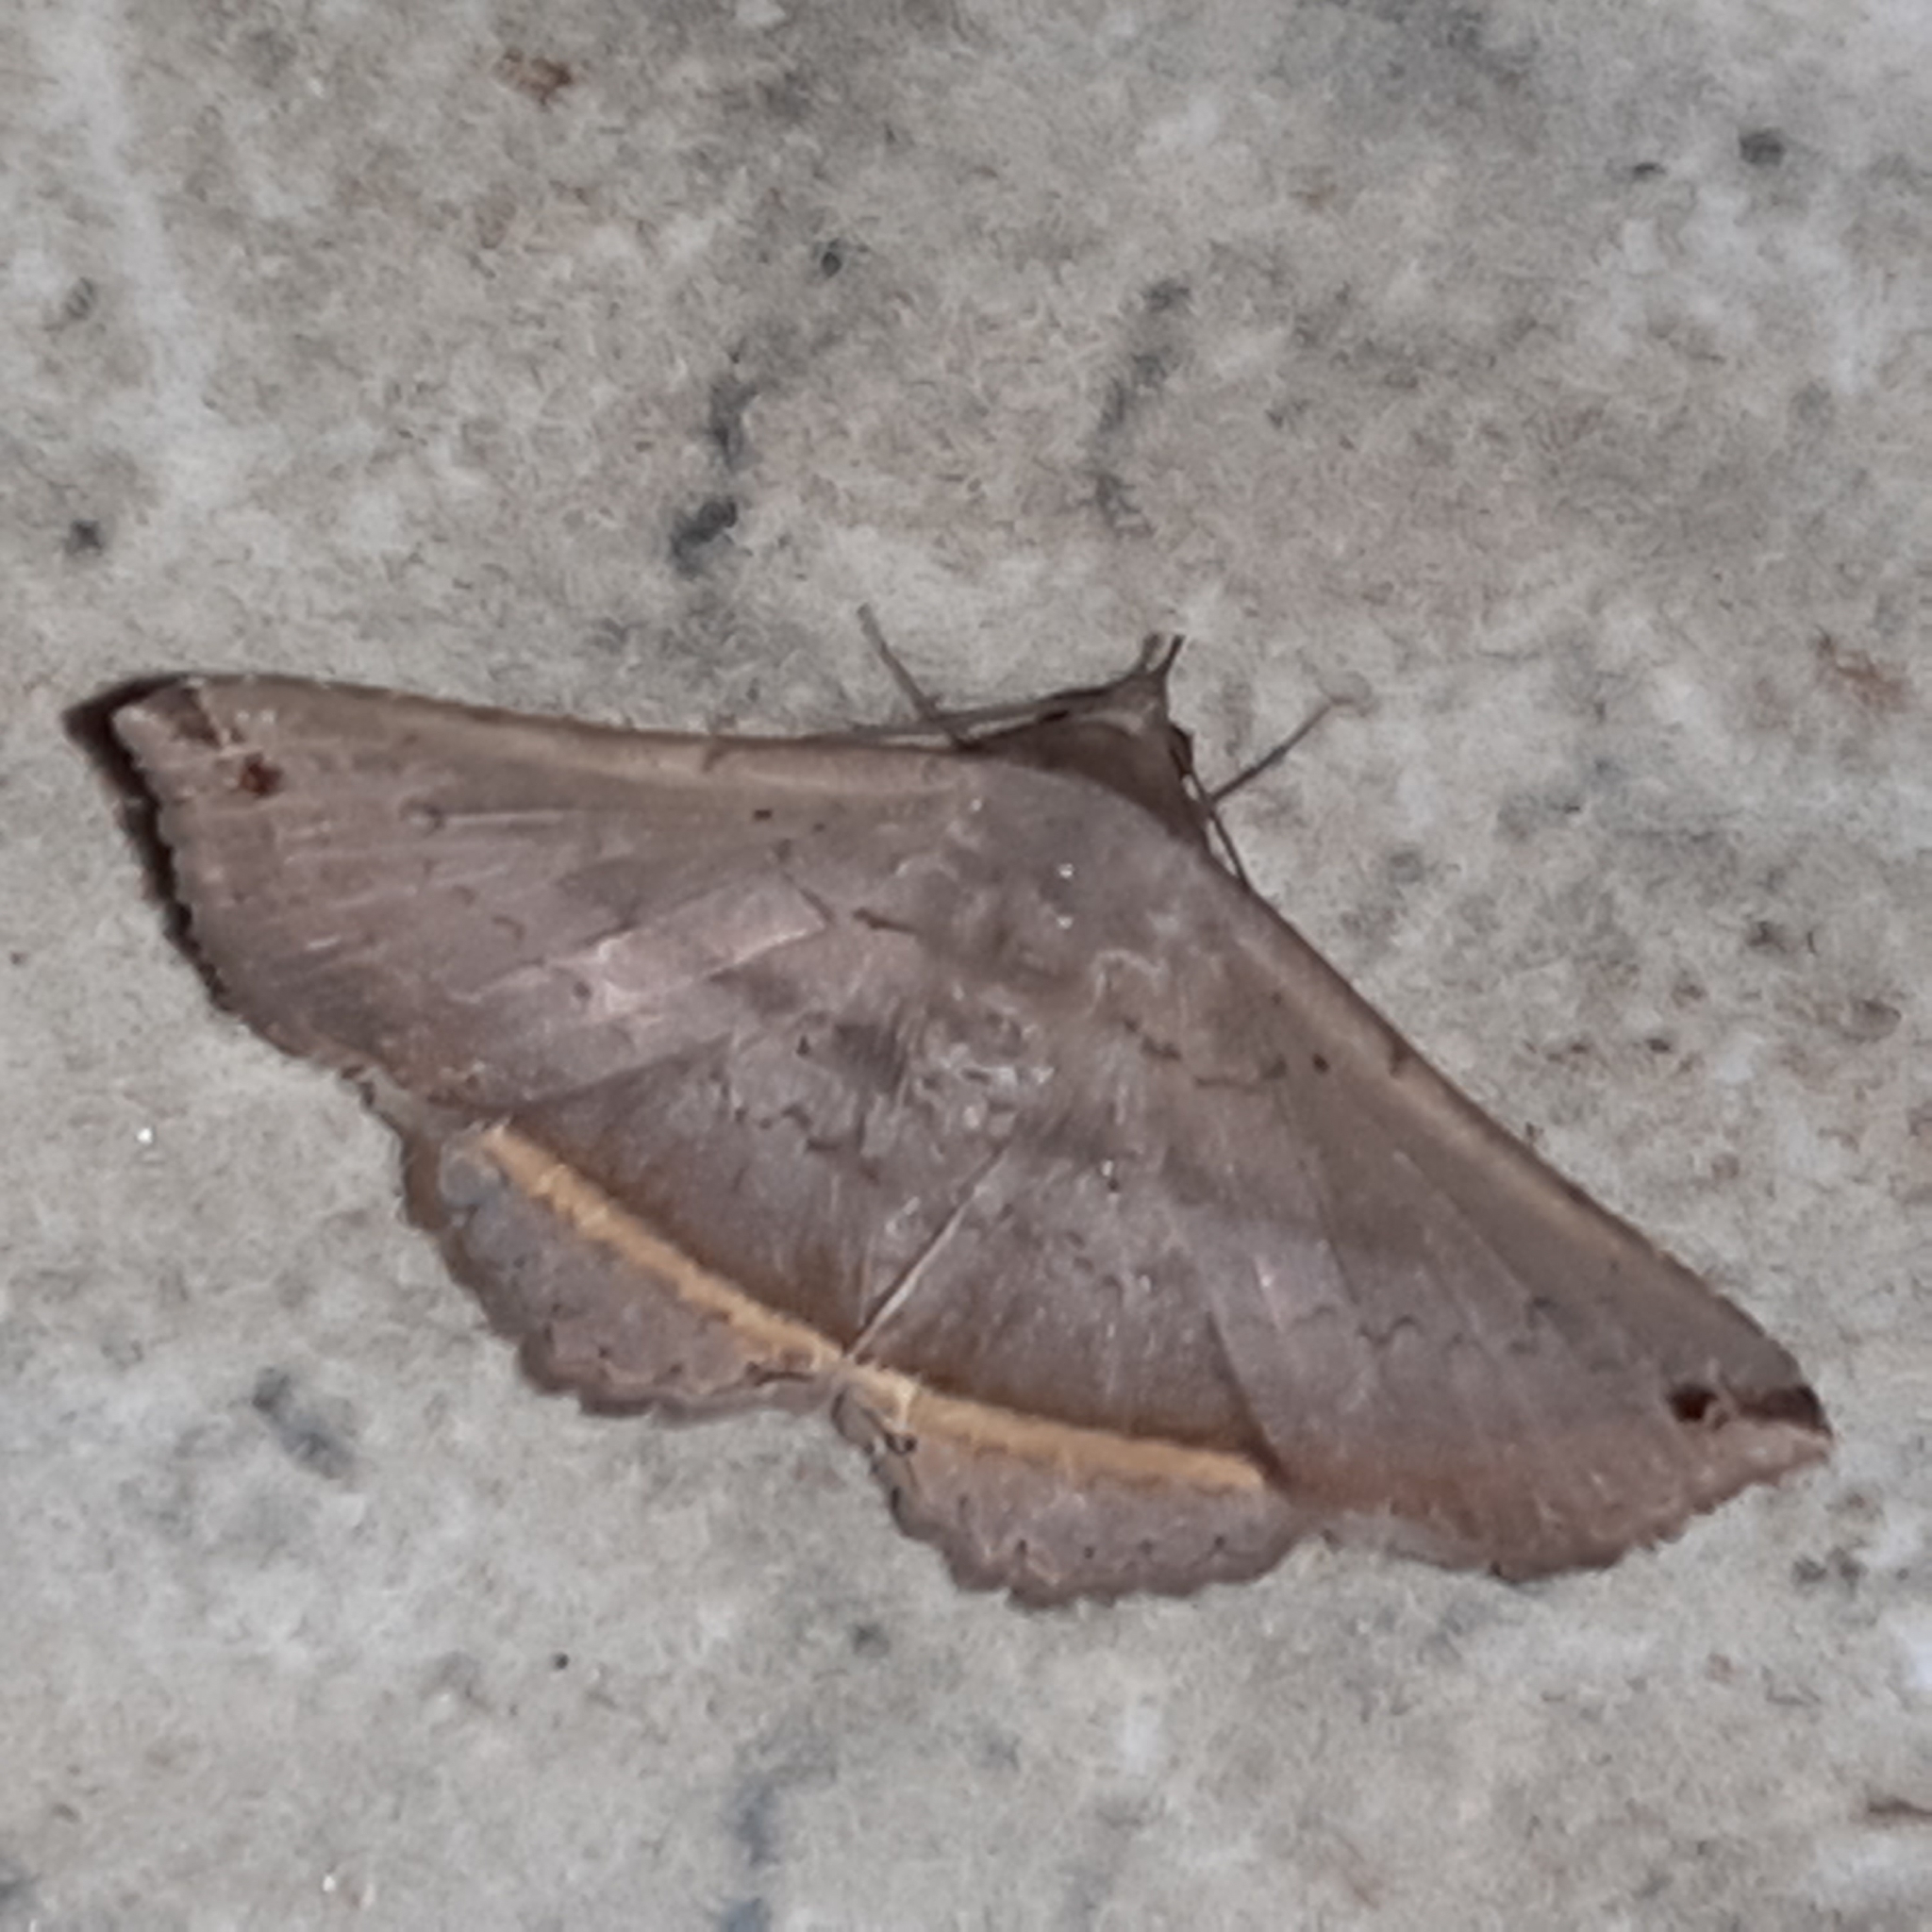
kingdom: Animalia
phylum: Arthropoda
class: Insecta
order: Lepidoptera
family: Erebidae
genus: Lesmone
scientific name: Lesmone formularis
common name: Lesmone moth
